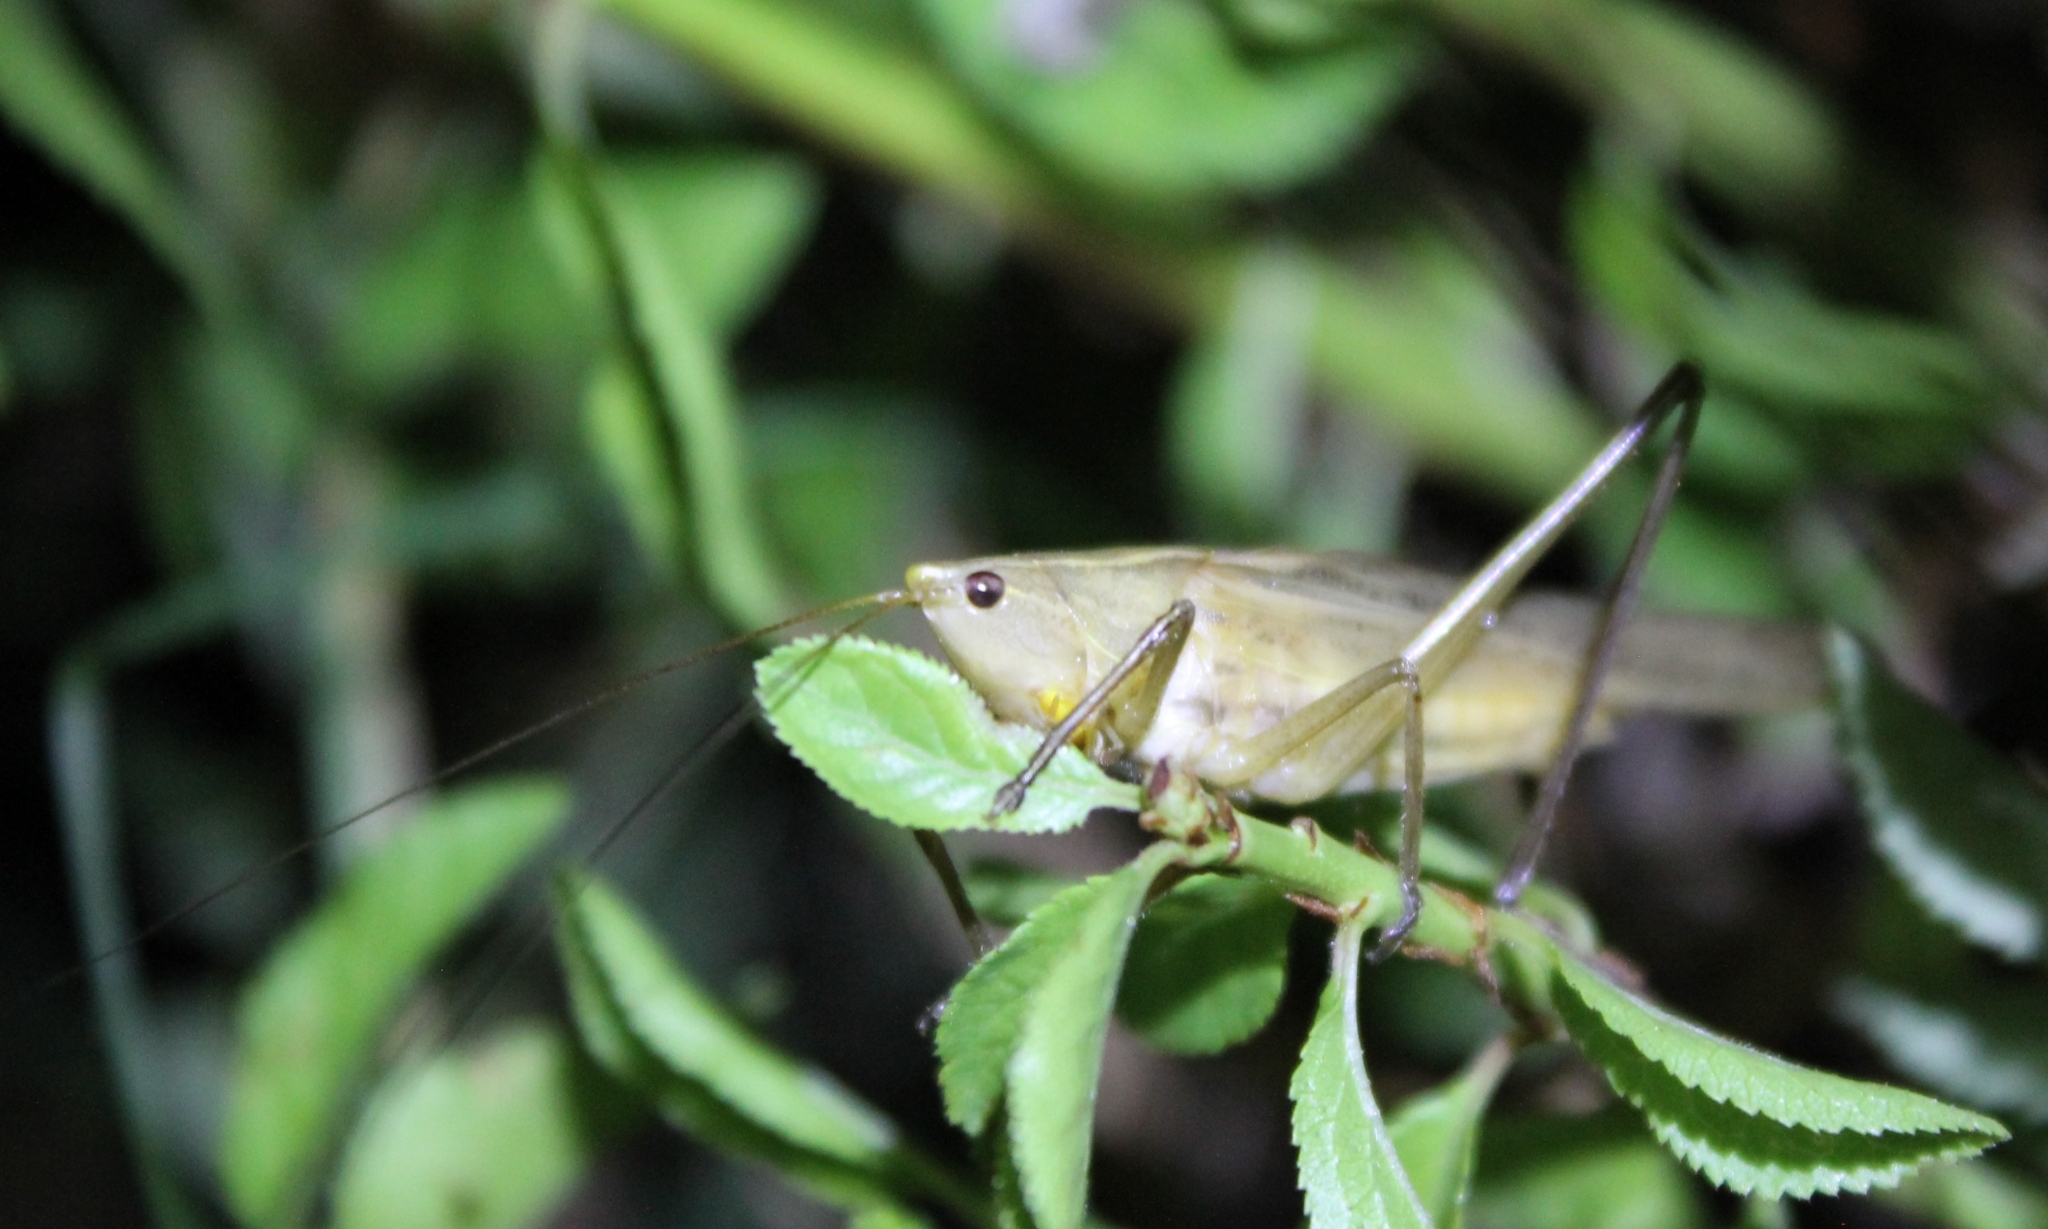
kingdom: Animalia
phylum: Arthropoda
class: Insecta
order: Orthoptera
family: Tettigoniidae
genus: Ruspolia
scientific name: Ruspolia nitidula
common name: Large conehead
